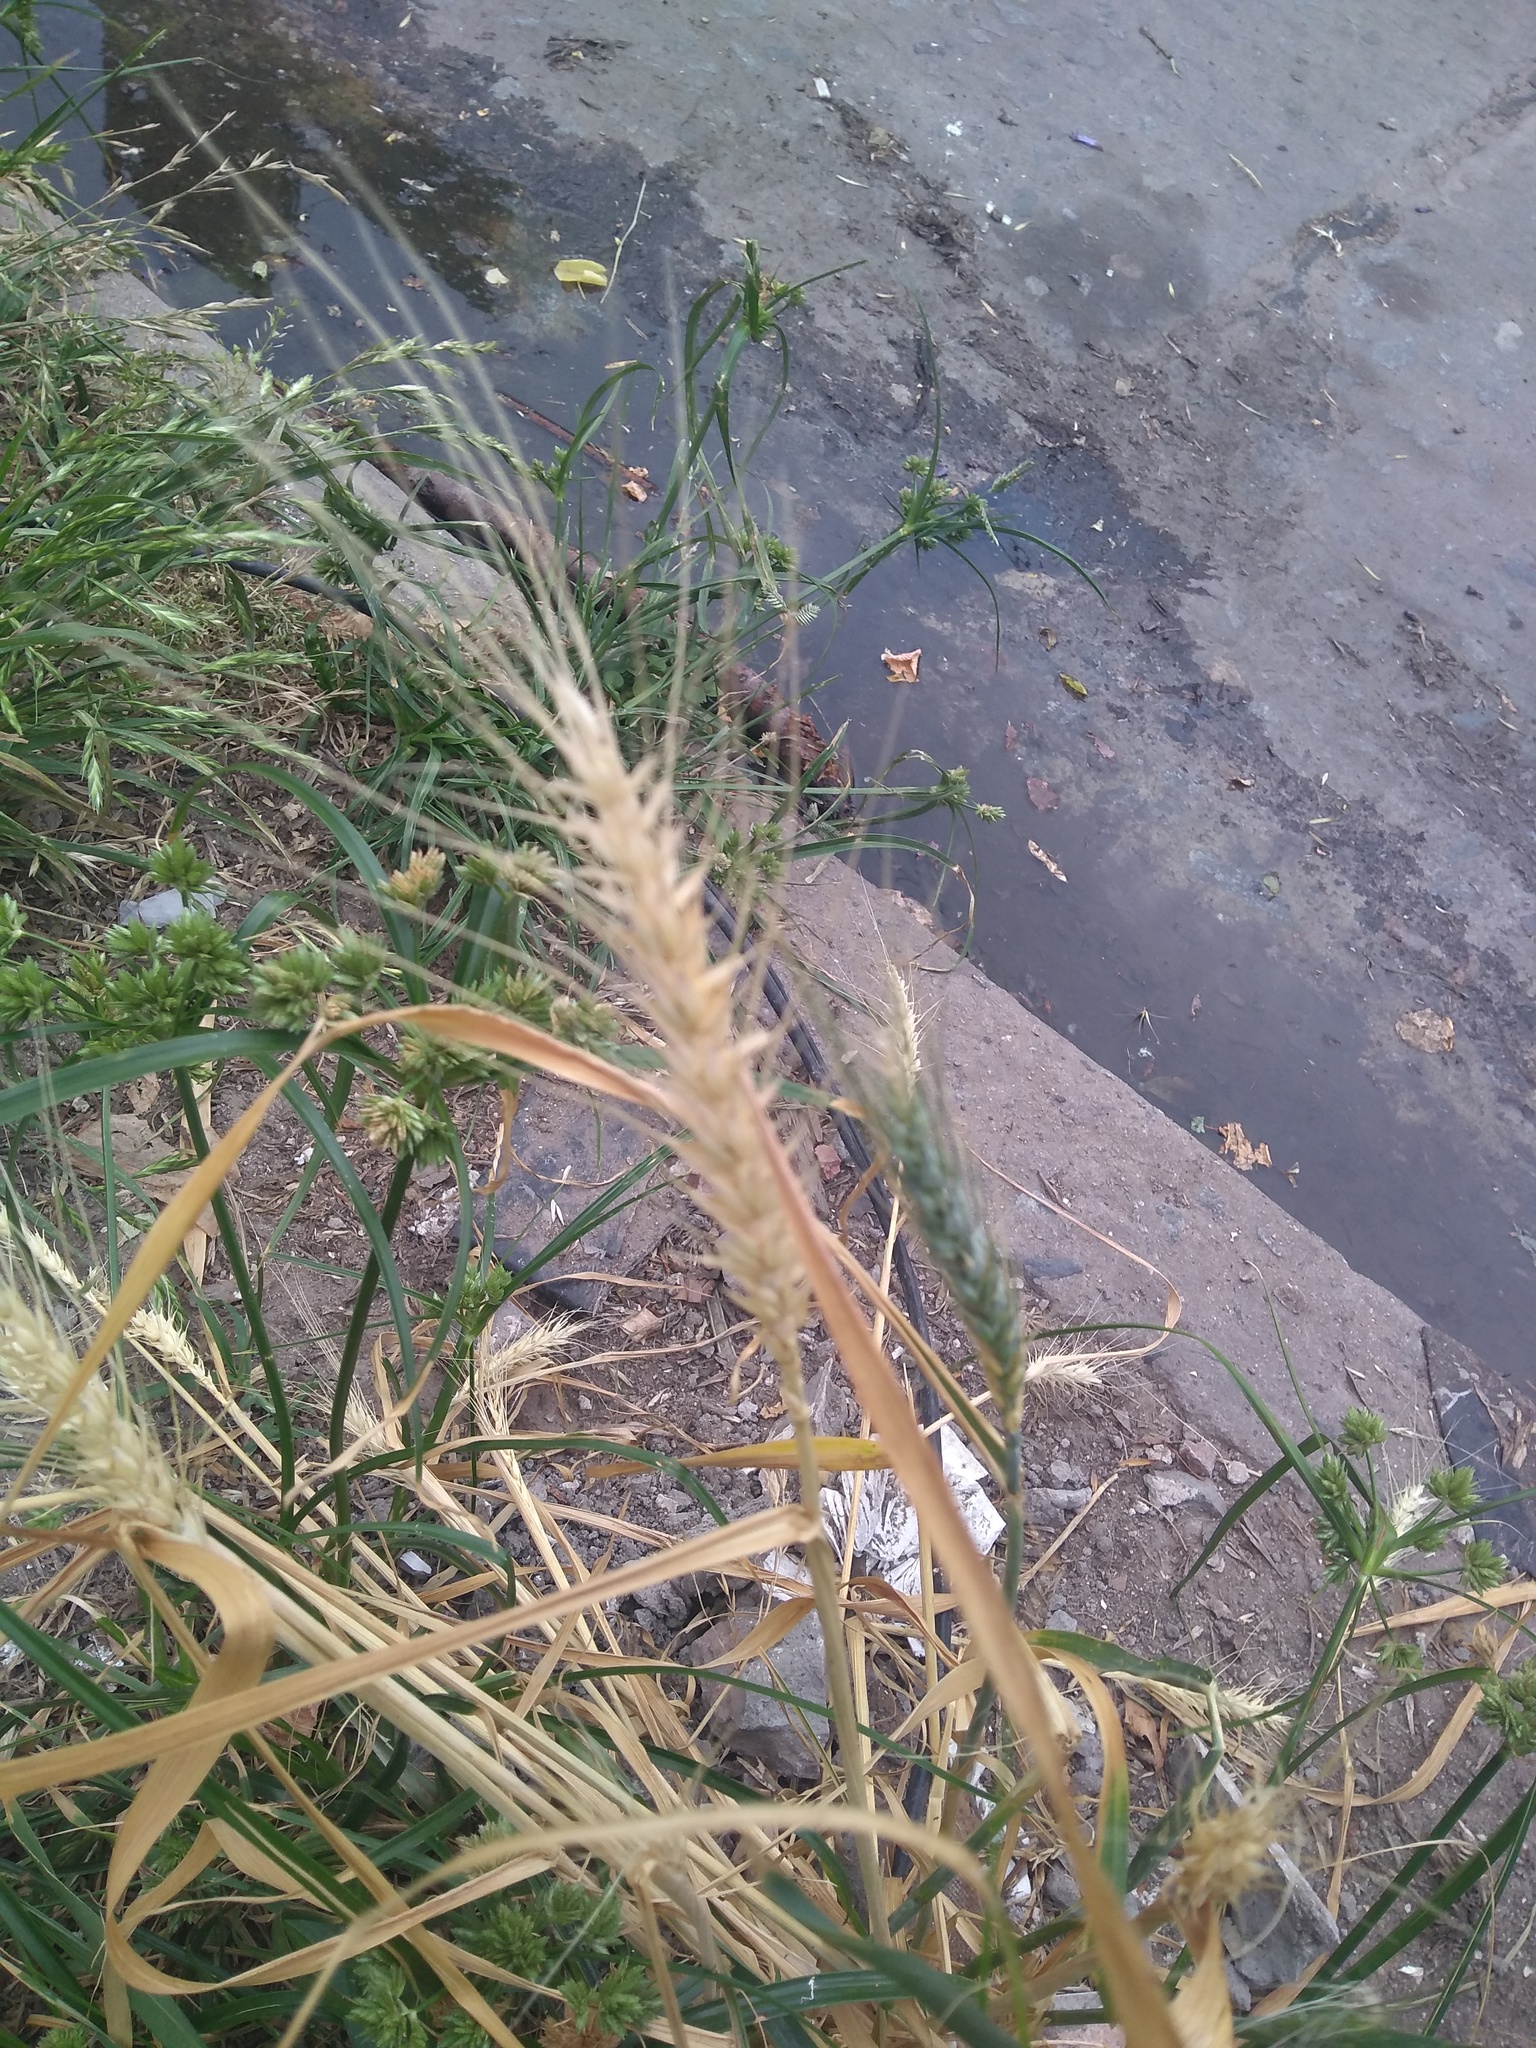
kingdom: Plantae
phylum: Tracheophyta
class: Liliopsida
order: Poales
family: Poaceae
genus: Triticum
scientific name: Triticum aestivum
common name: Common wheat
